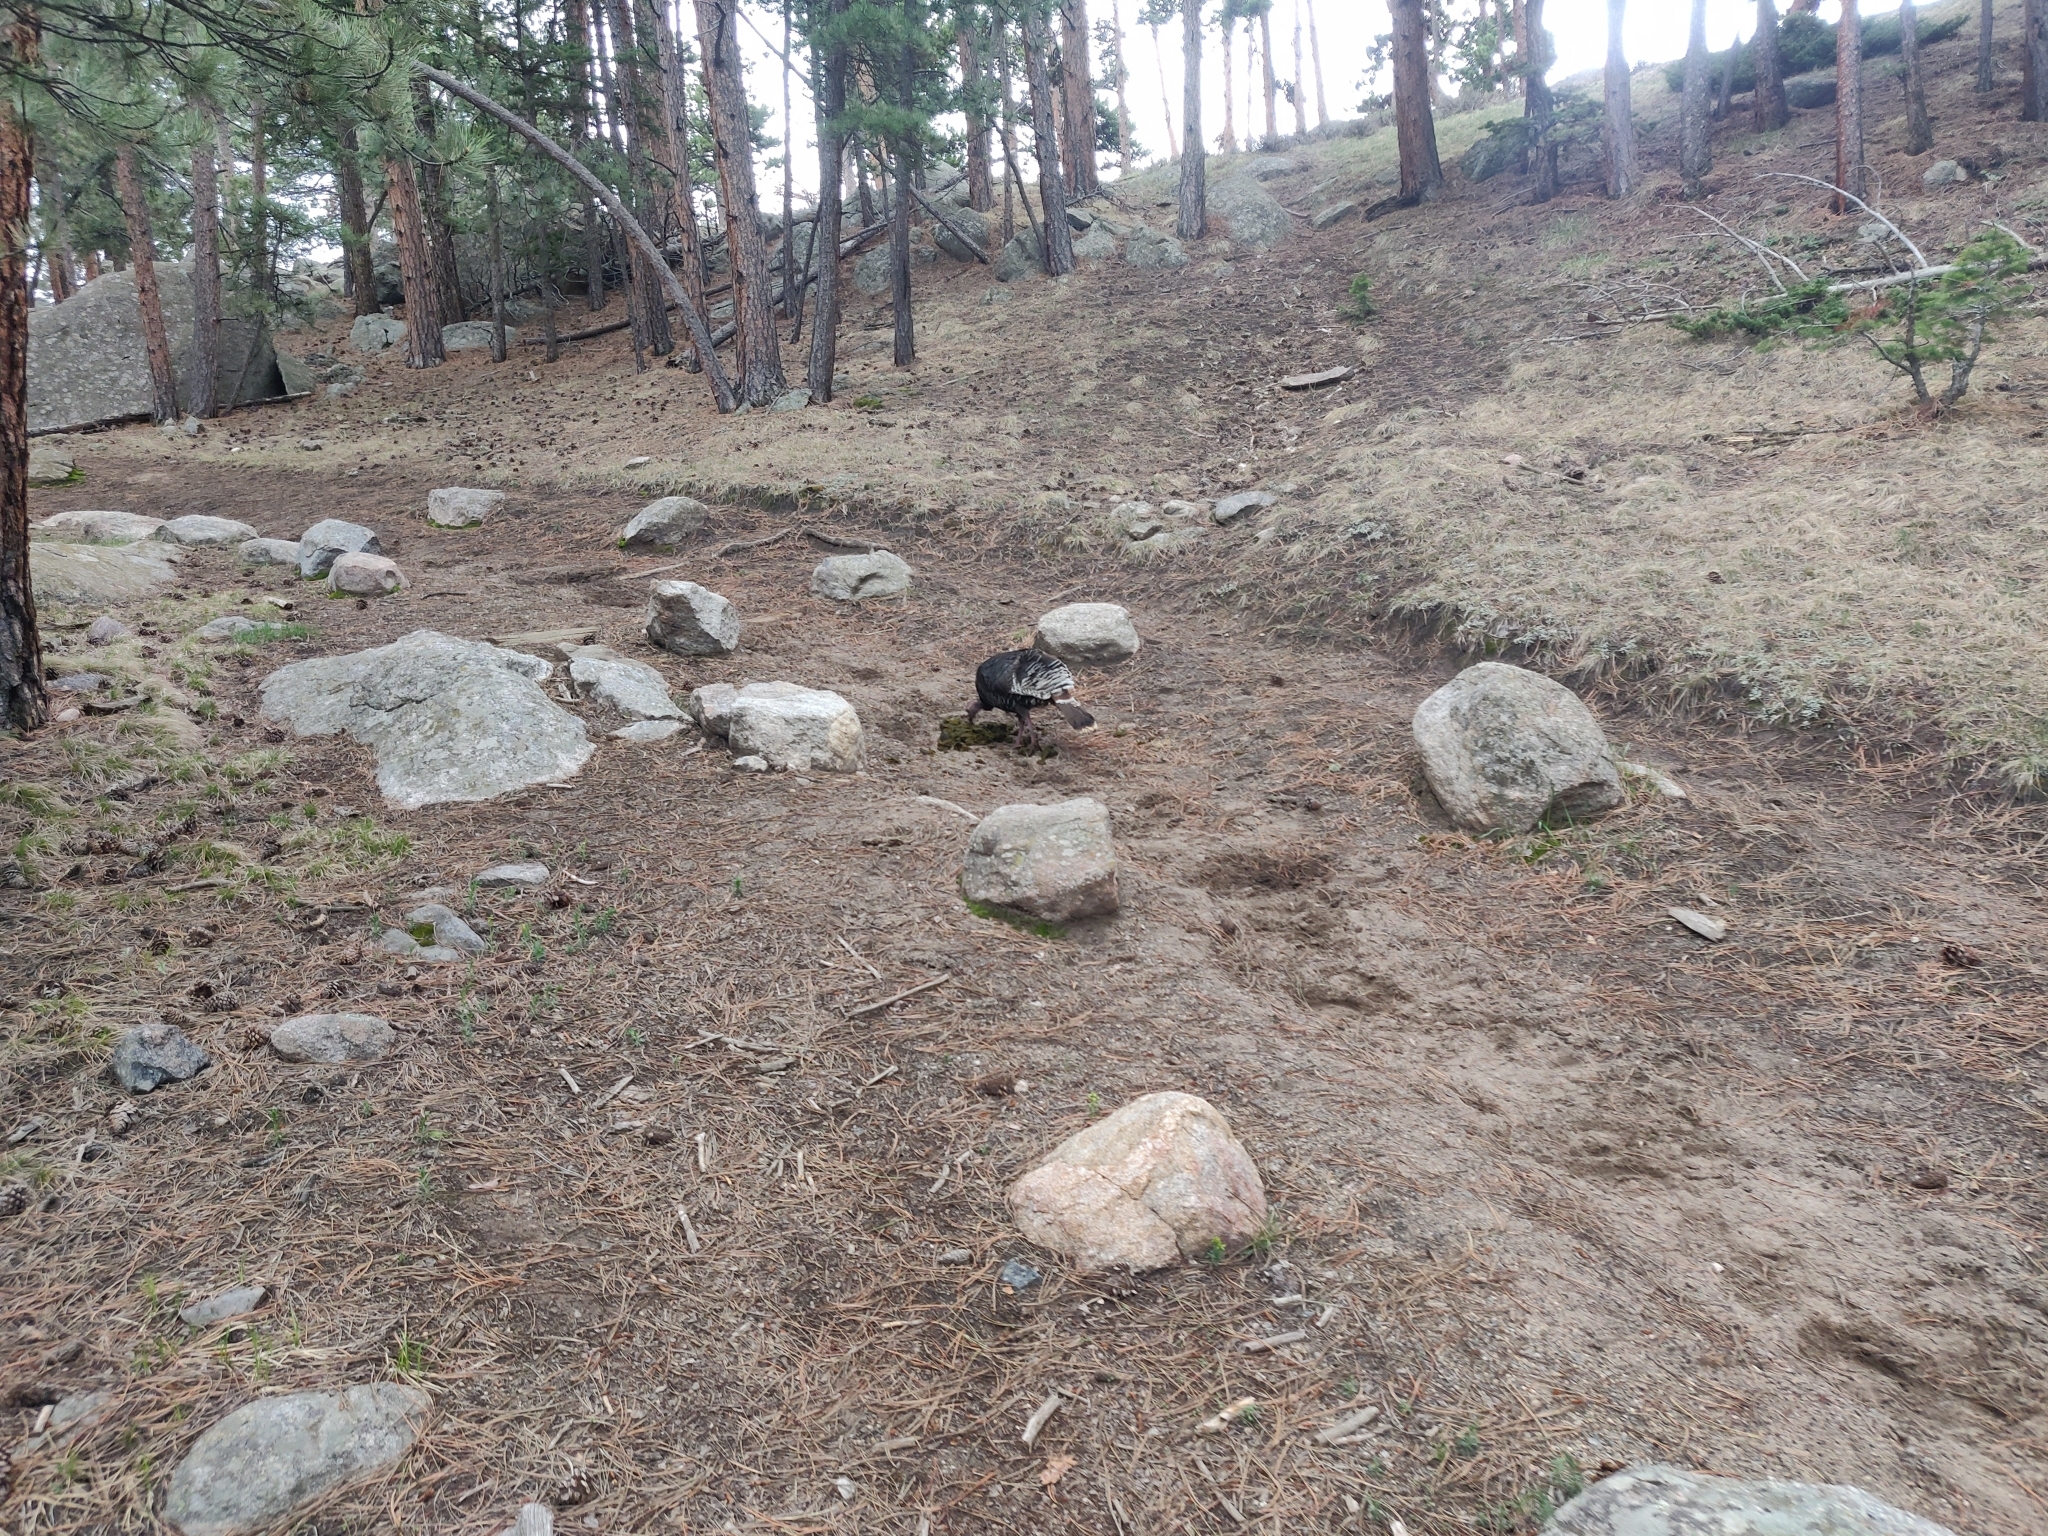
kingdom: Animalia
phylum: Chordata
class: Aves
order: Galliformes
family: Phasianidae
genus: Meleagris
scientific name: Meleagris gallopavo
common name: Wild turkey
